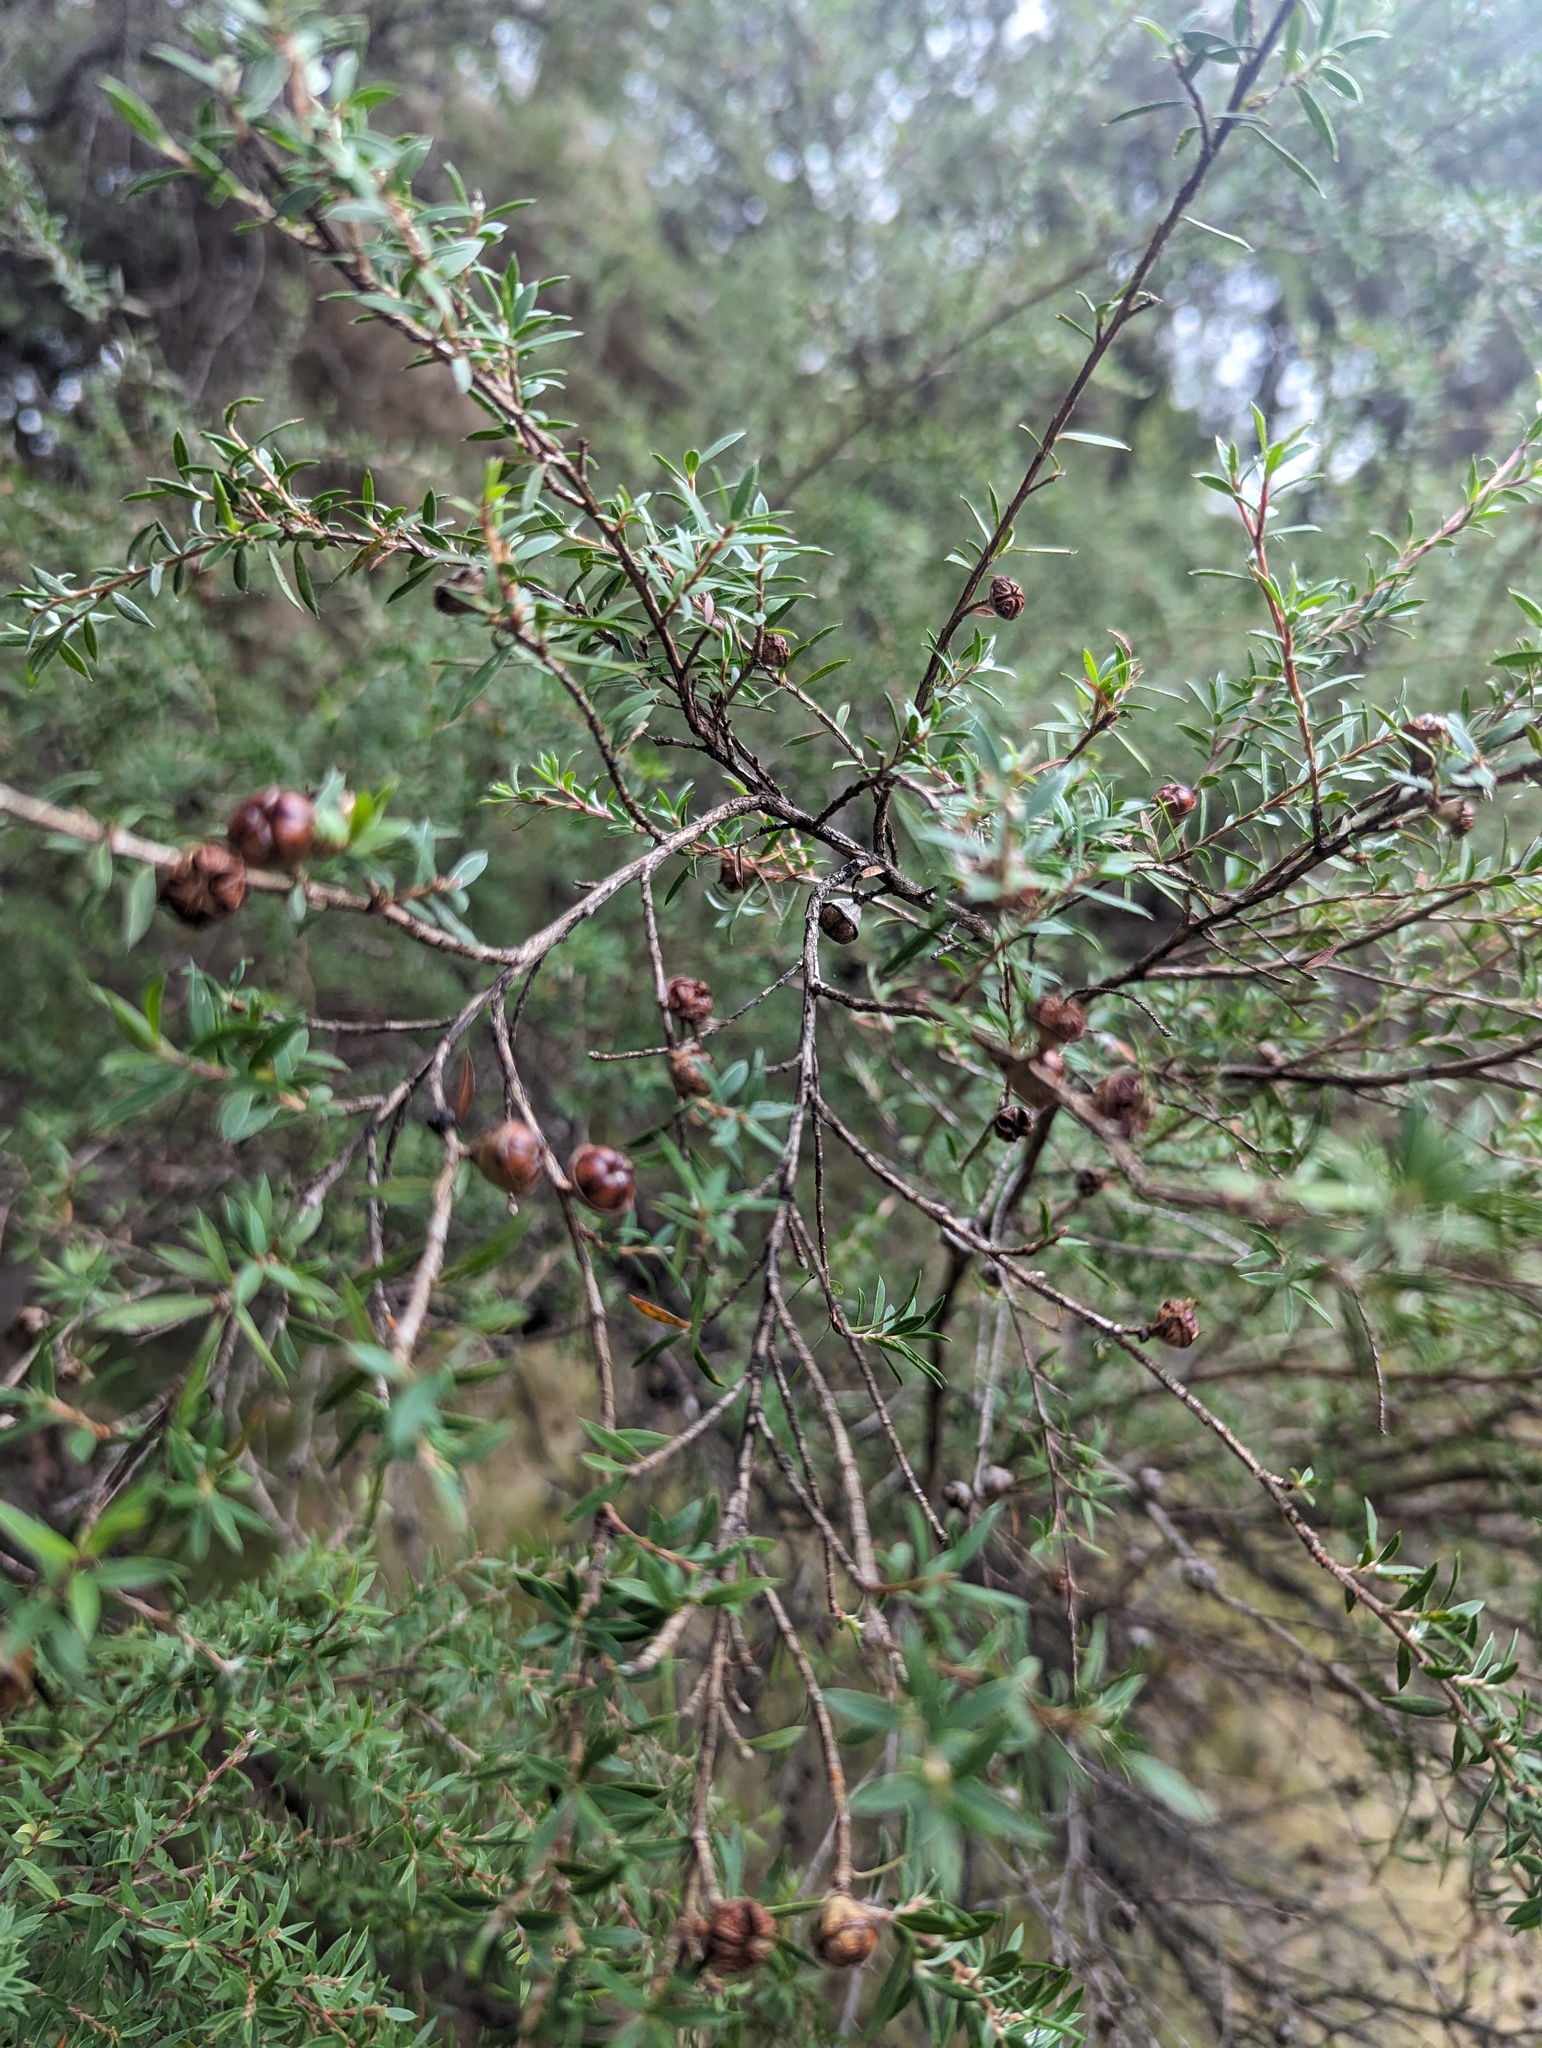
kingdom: Plantae
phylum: Tracheophyta
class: Magnoliopsida
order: Myrtales
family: Myrtaceae
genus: Leptospermum
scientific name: Leptospermum scoparium
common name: Broom tea-tree
